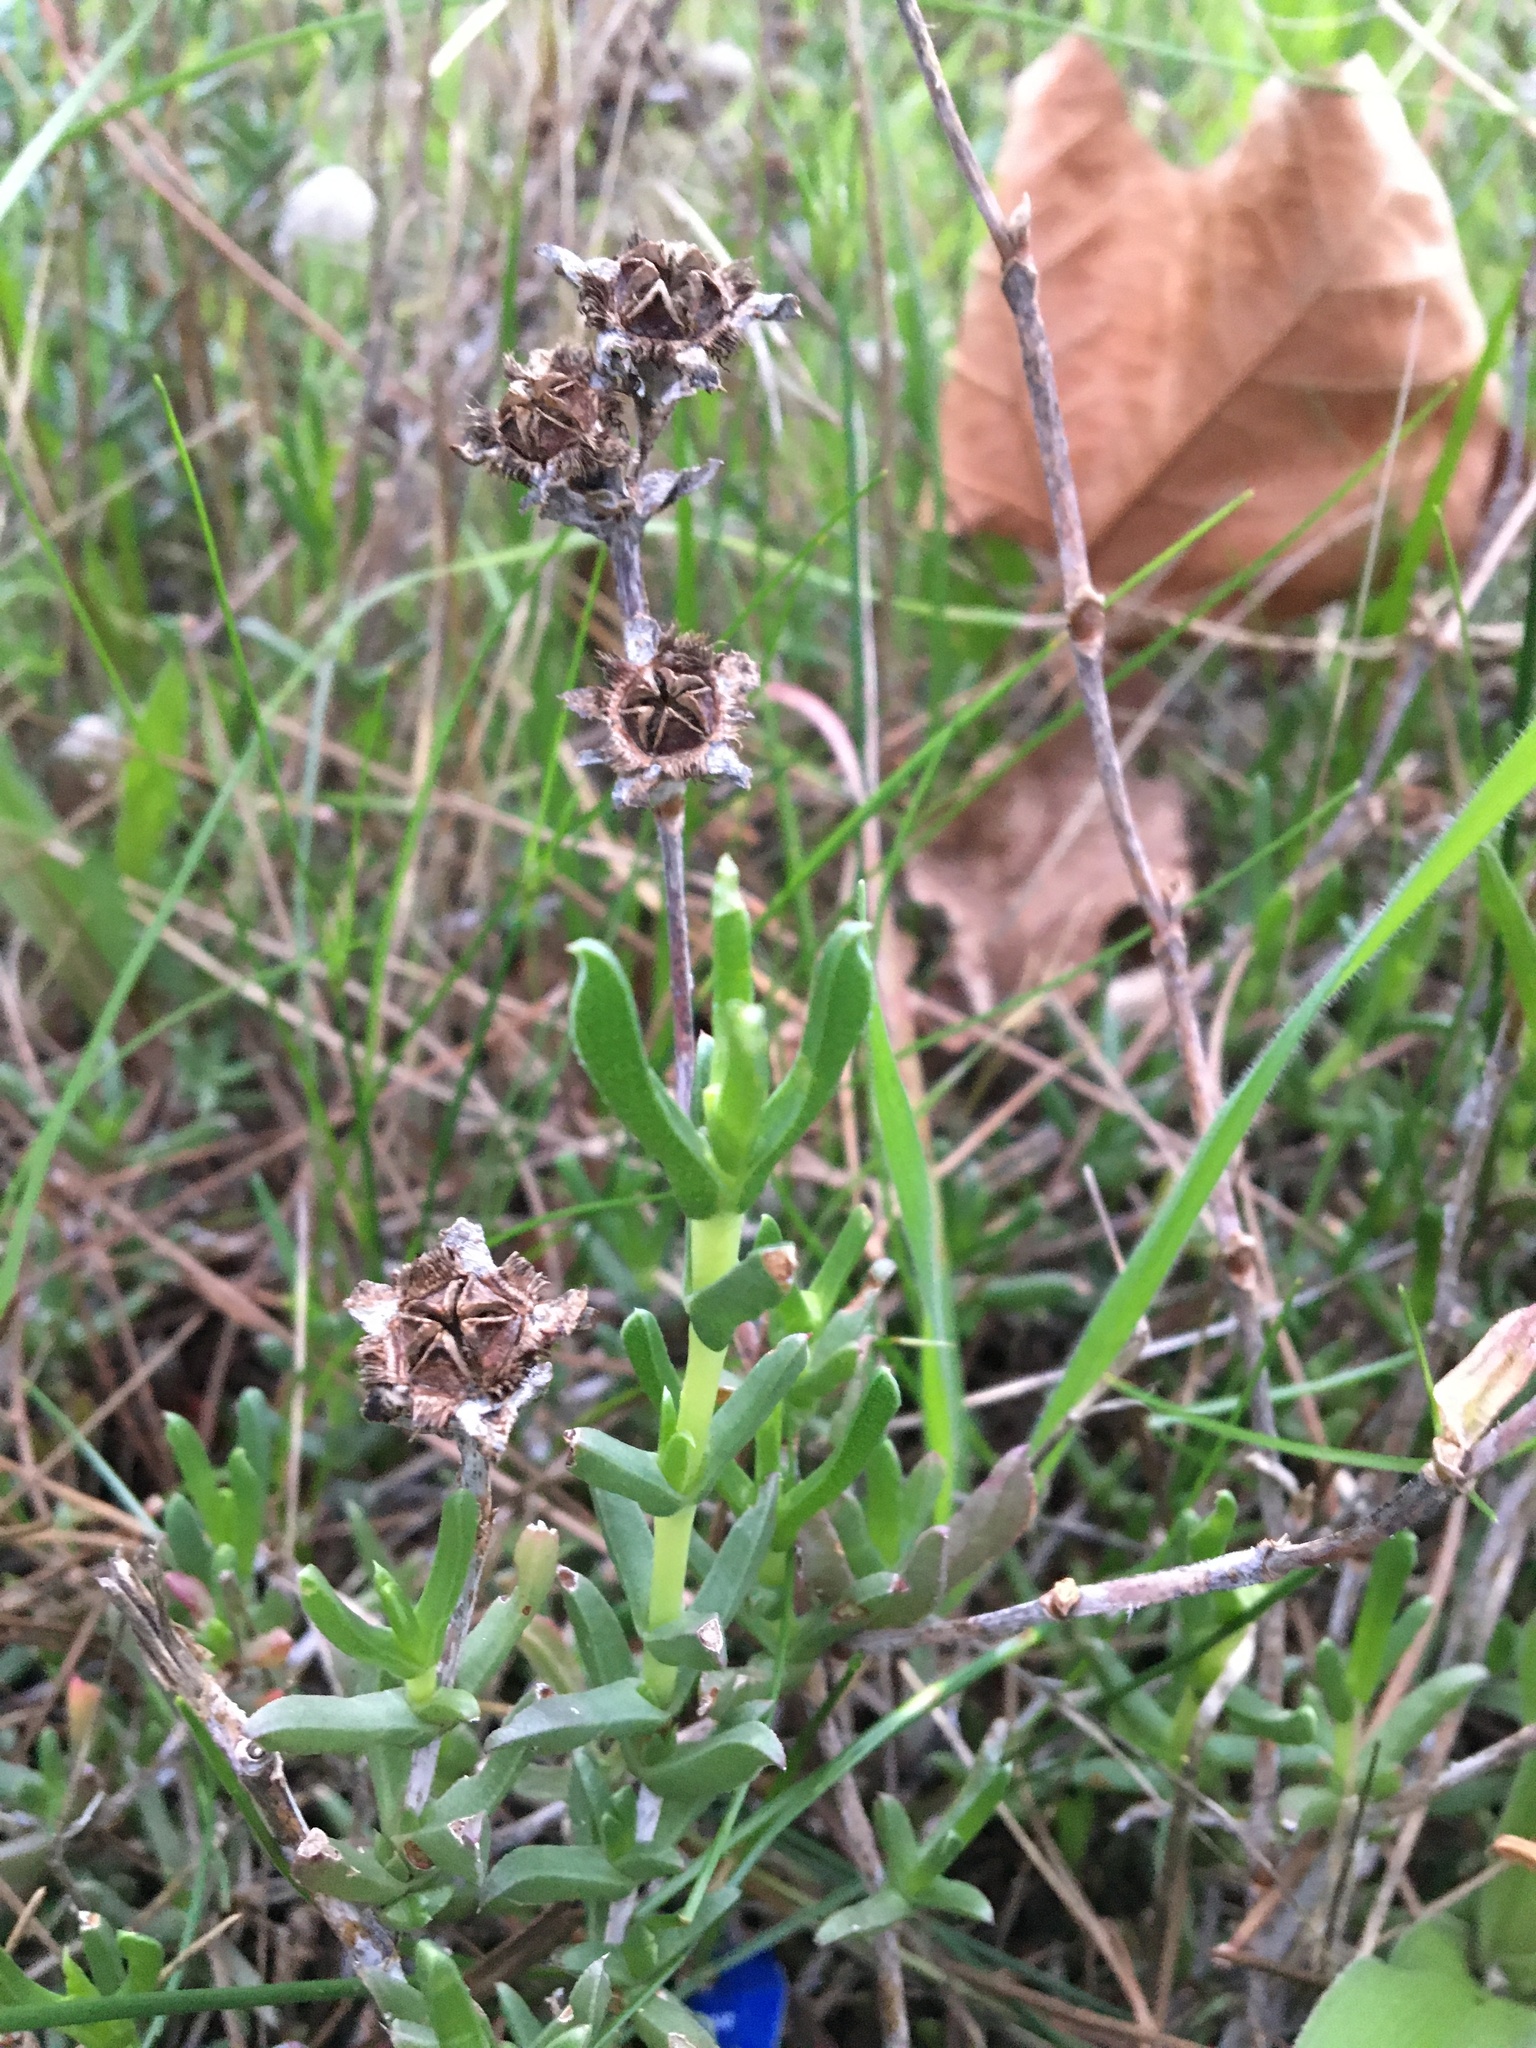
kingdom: Plantae
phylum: Tracheophyta
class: Magnoliopsida
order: Caryophyllales
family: Aizoaceae
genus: Erepsia
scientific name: Erepsia bracteata
